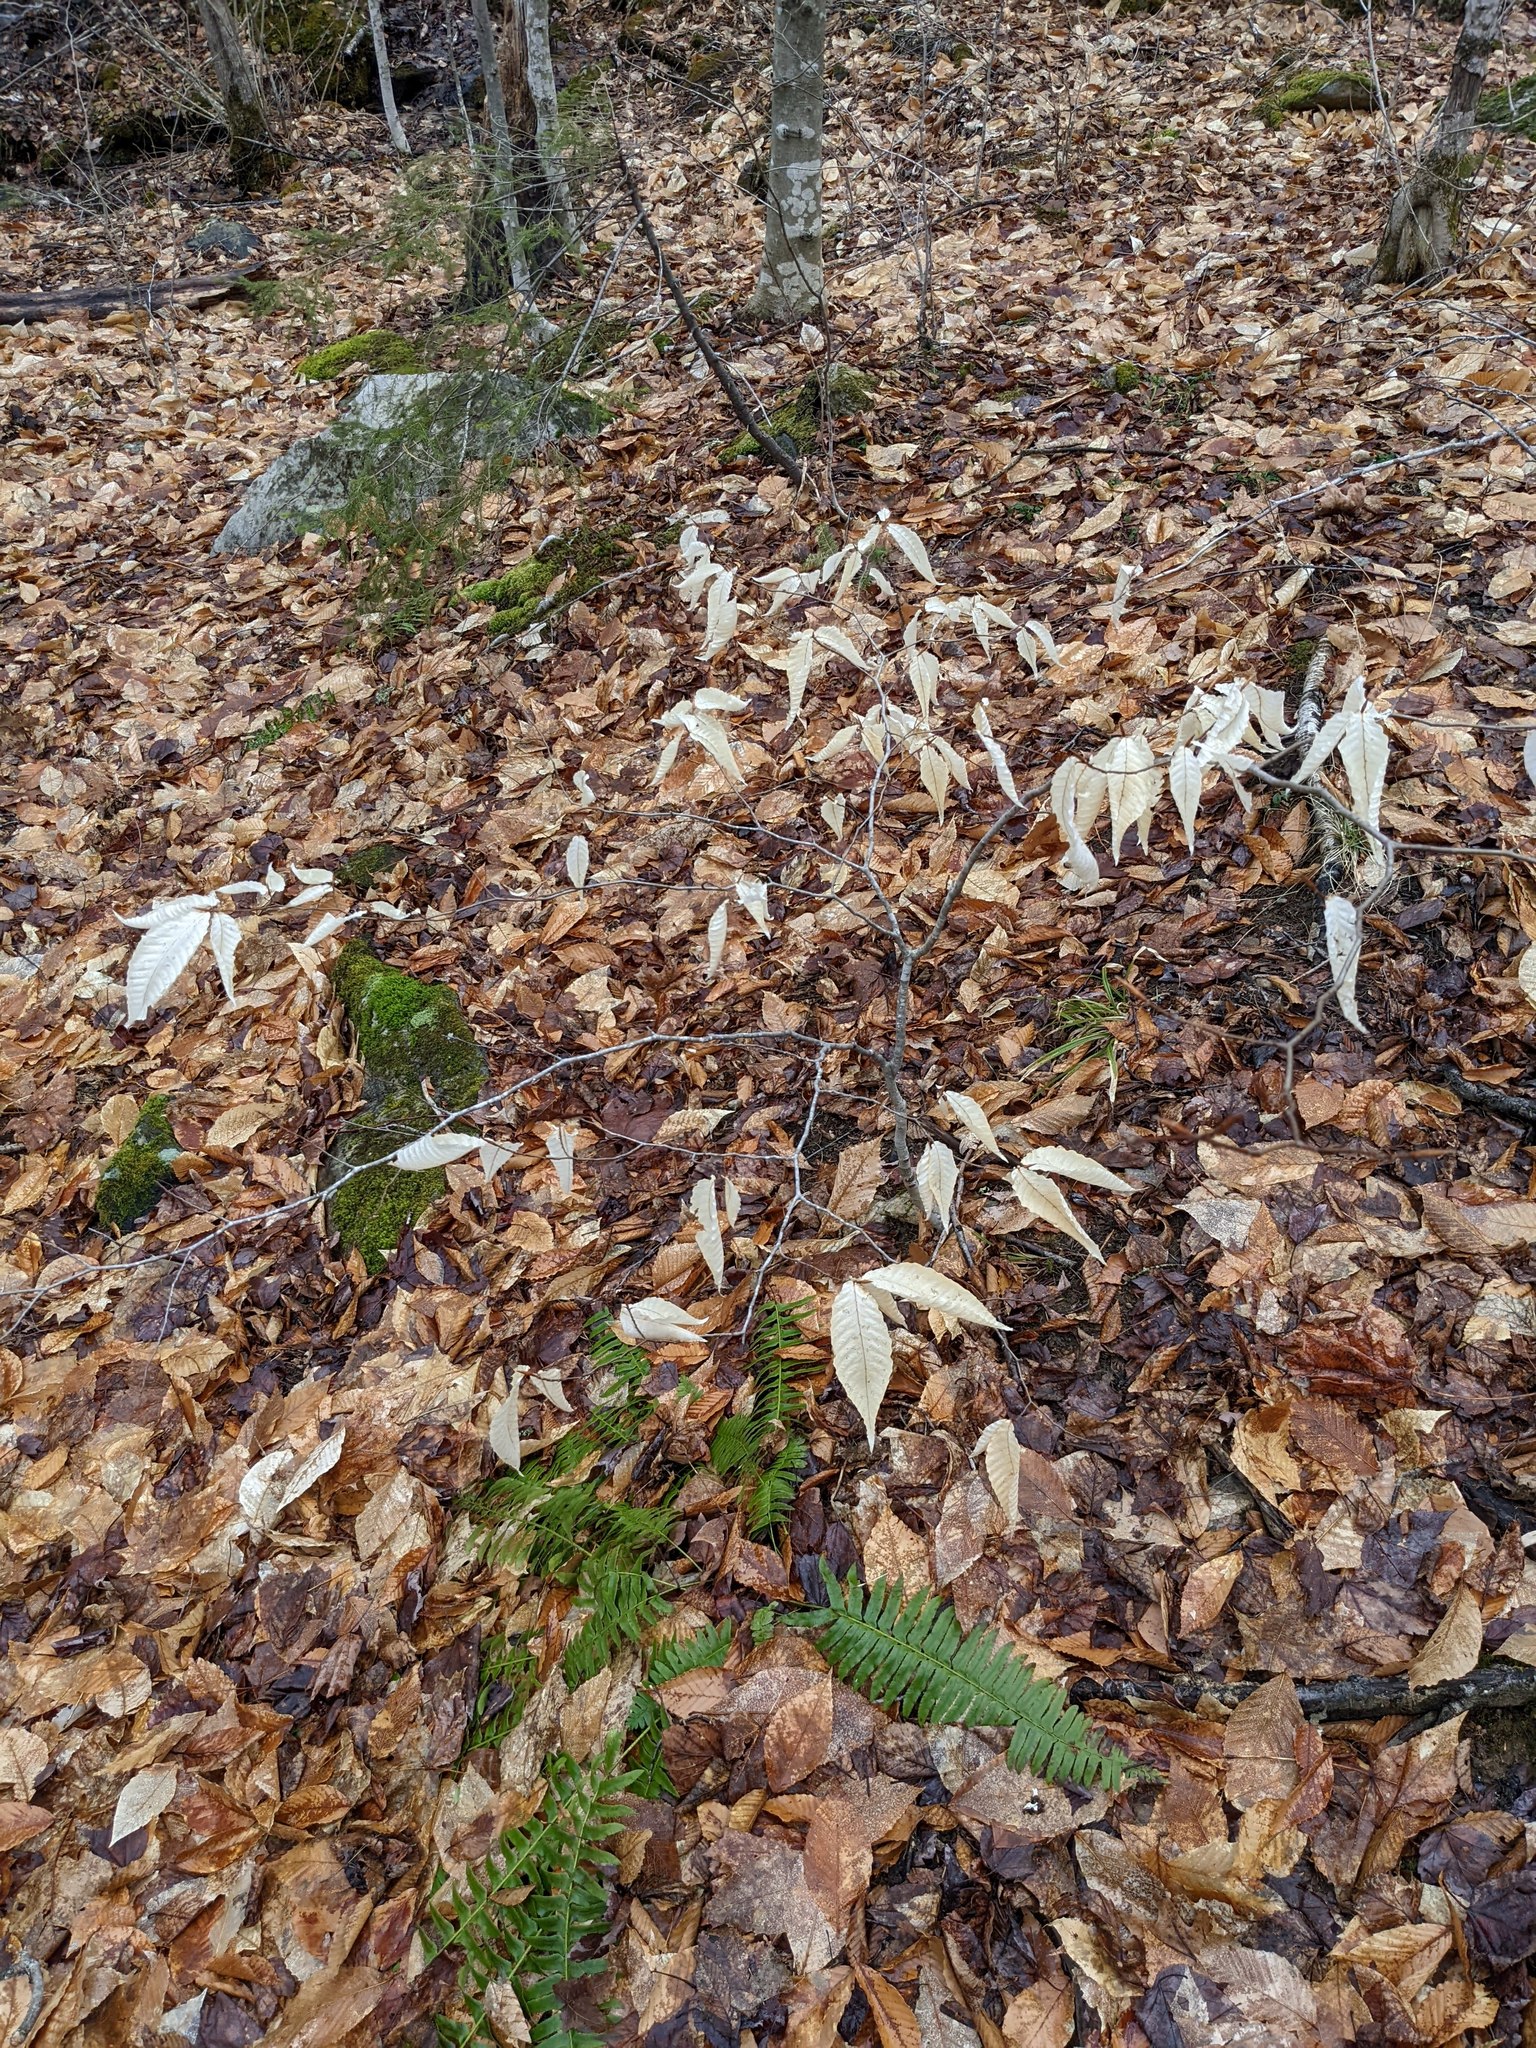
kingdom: Plantae
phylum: Tracheophyta
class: Magnoliopsida
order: Fagales
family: Fagaceae
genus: Fagus
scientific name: Fagus grandifolia
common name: American beech
